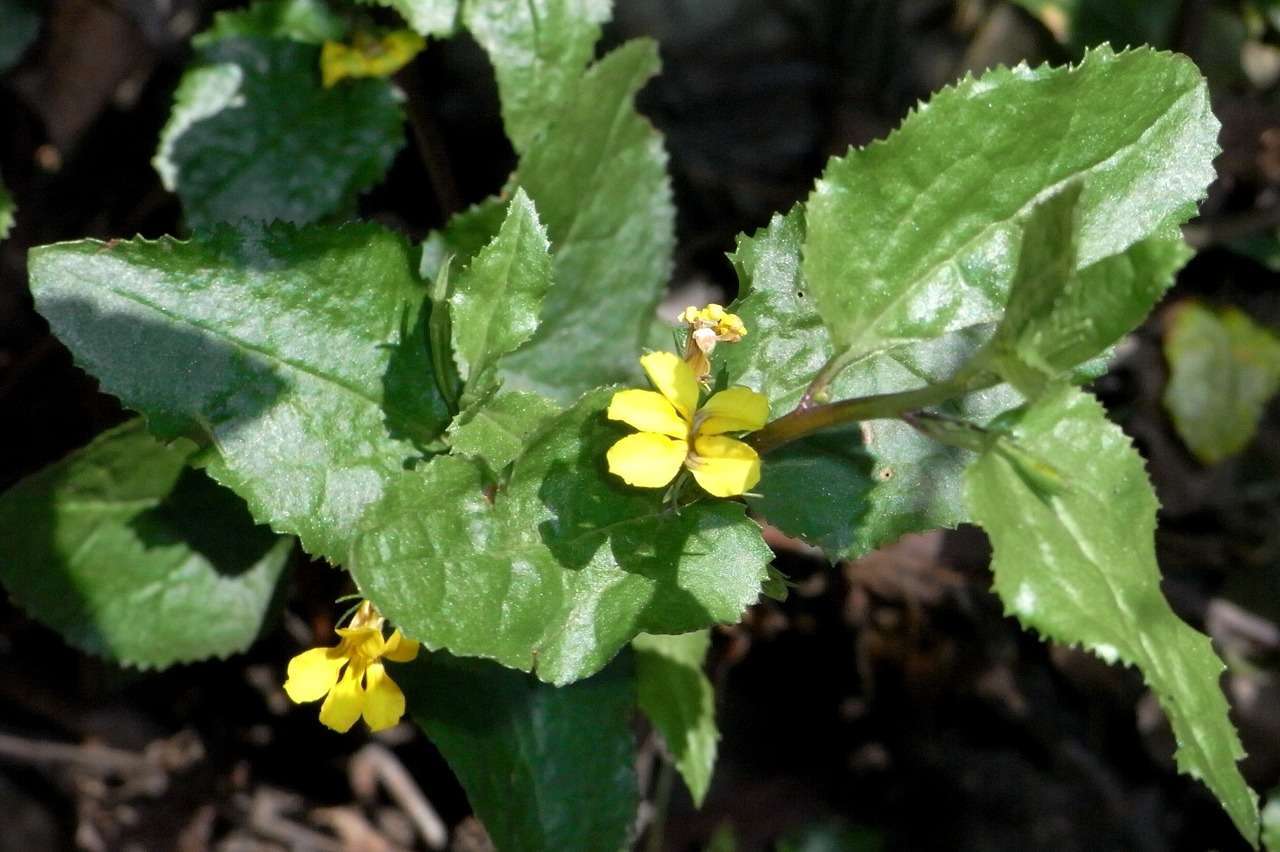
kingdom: Plantae
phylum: Tracheophyta
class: Magnoliopsida
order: Asterales
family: Goodeniaceae
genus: Goodenia
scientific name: Goodenia ovata
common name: Hop goodenia
